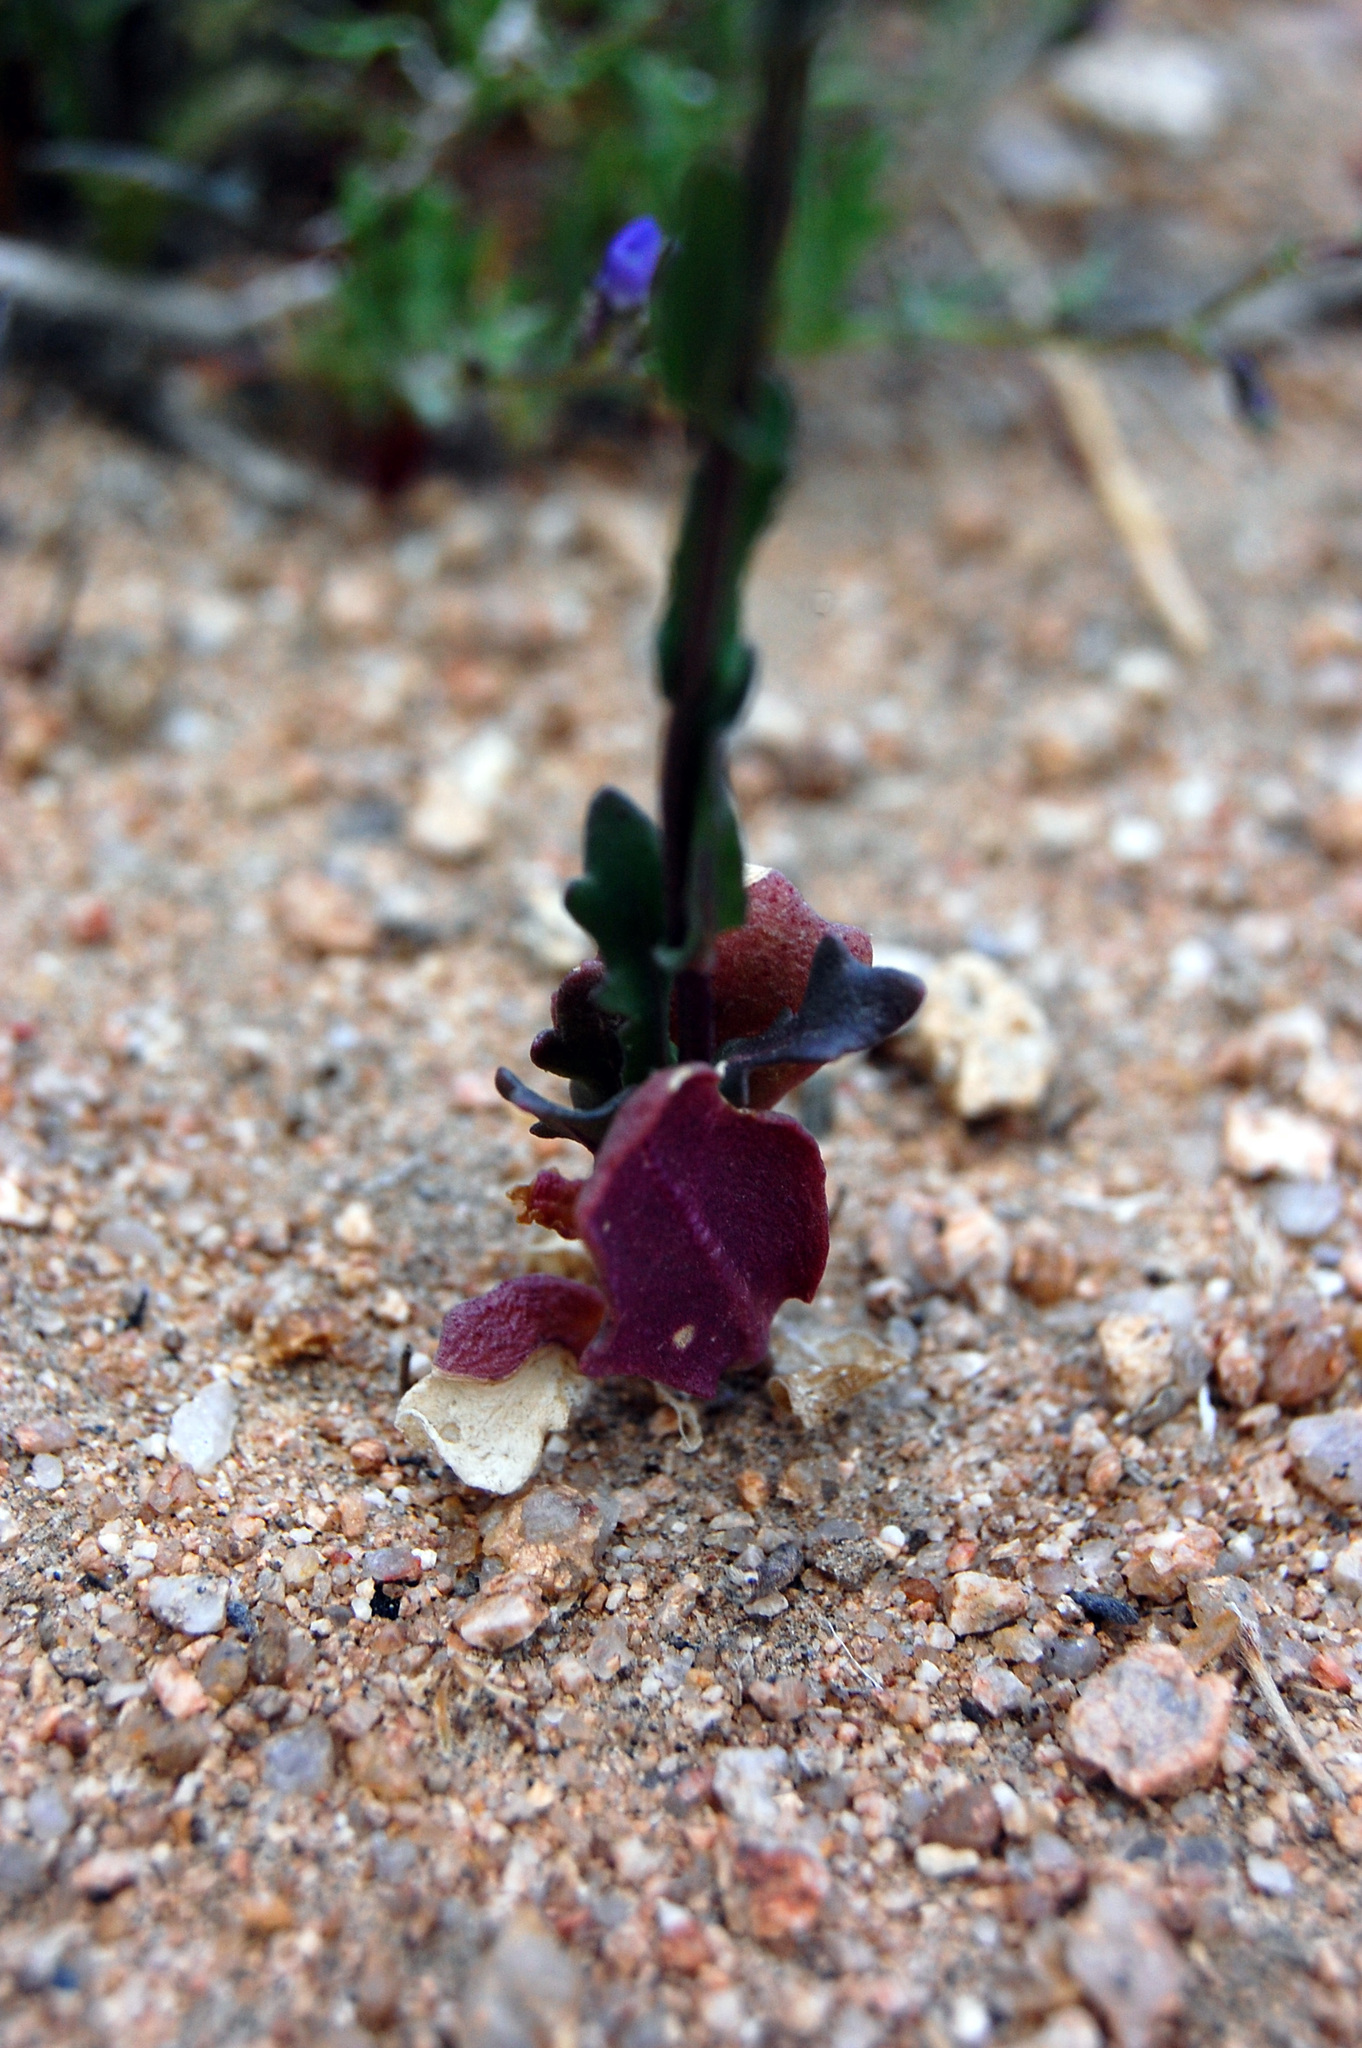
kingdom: Plantae
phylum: Tracheophyta
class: Magnoliopsida
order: Brassicales
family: Brassicaceae
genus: Streptanthus
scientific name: Streptanthus cooperi
